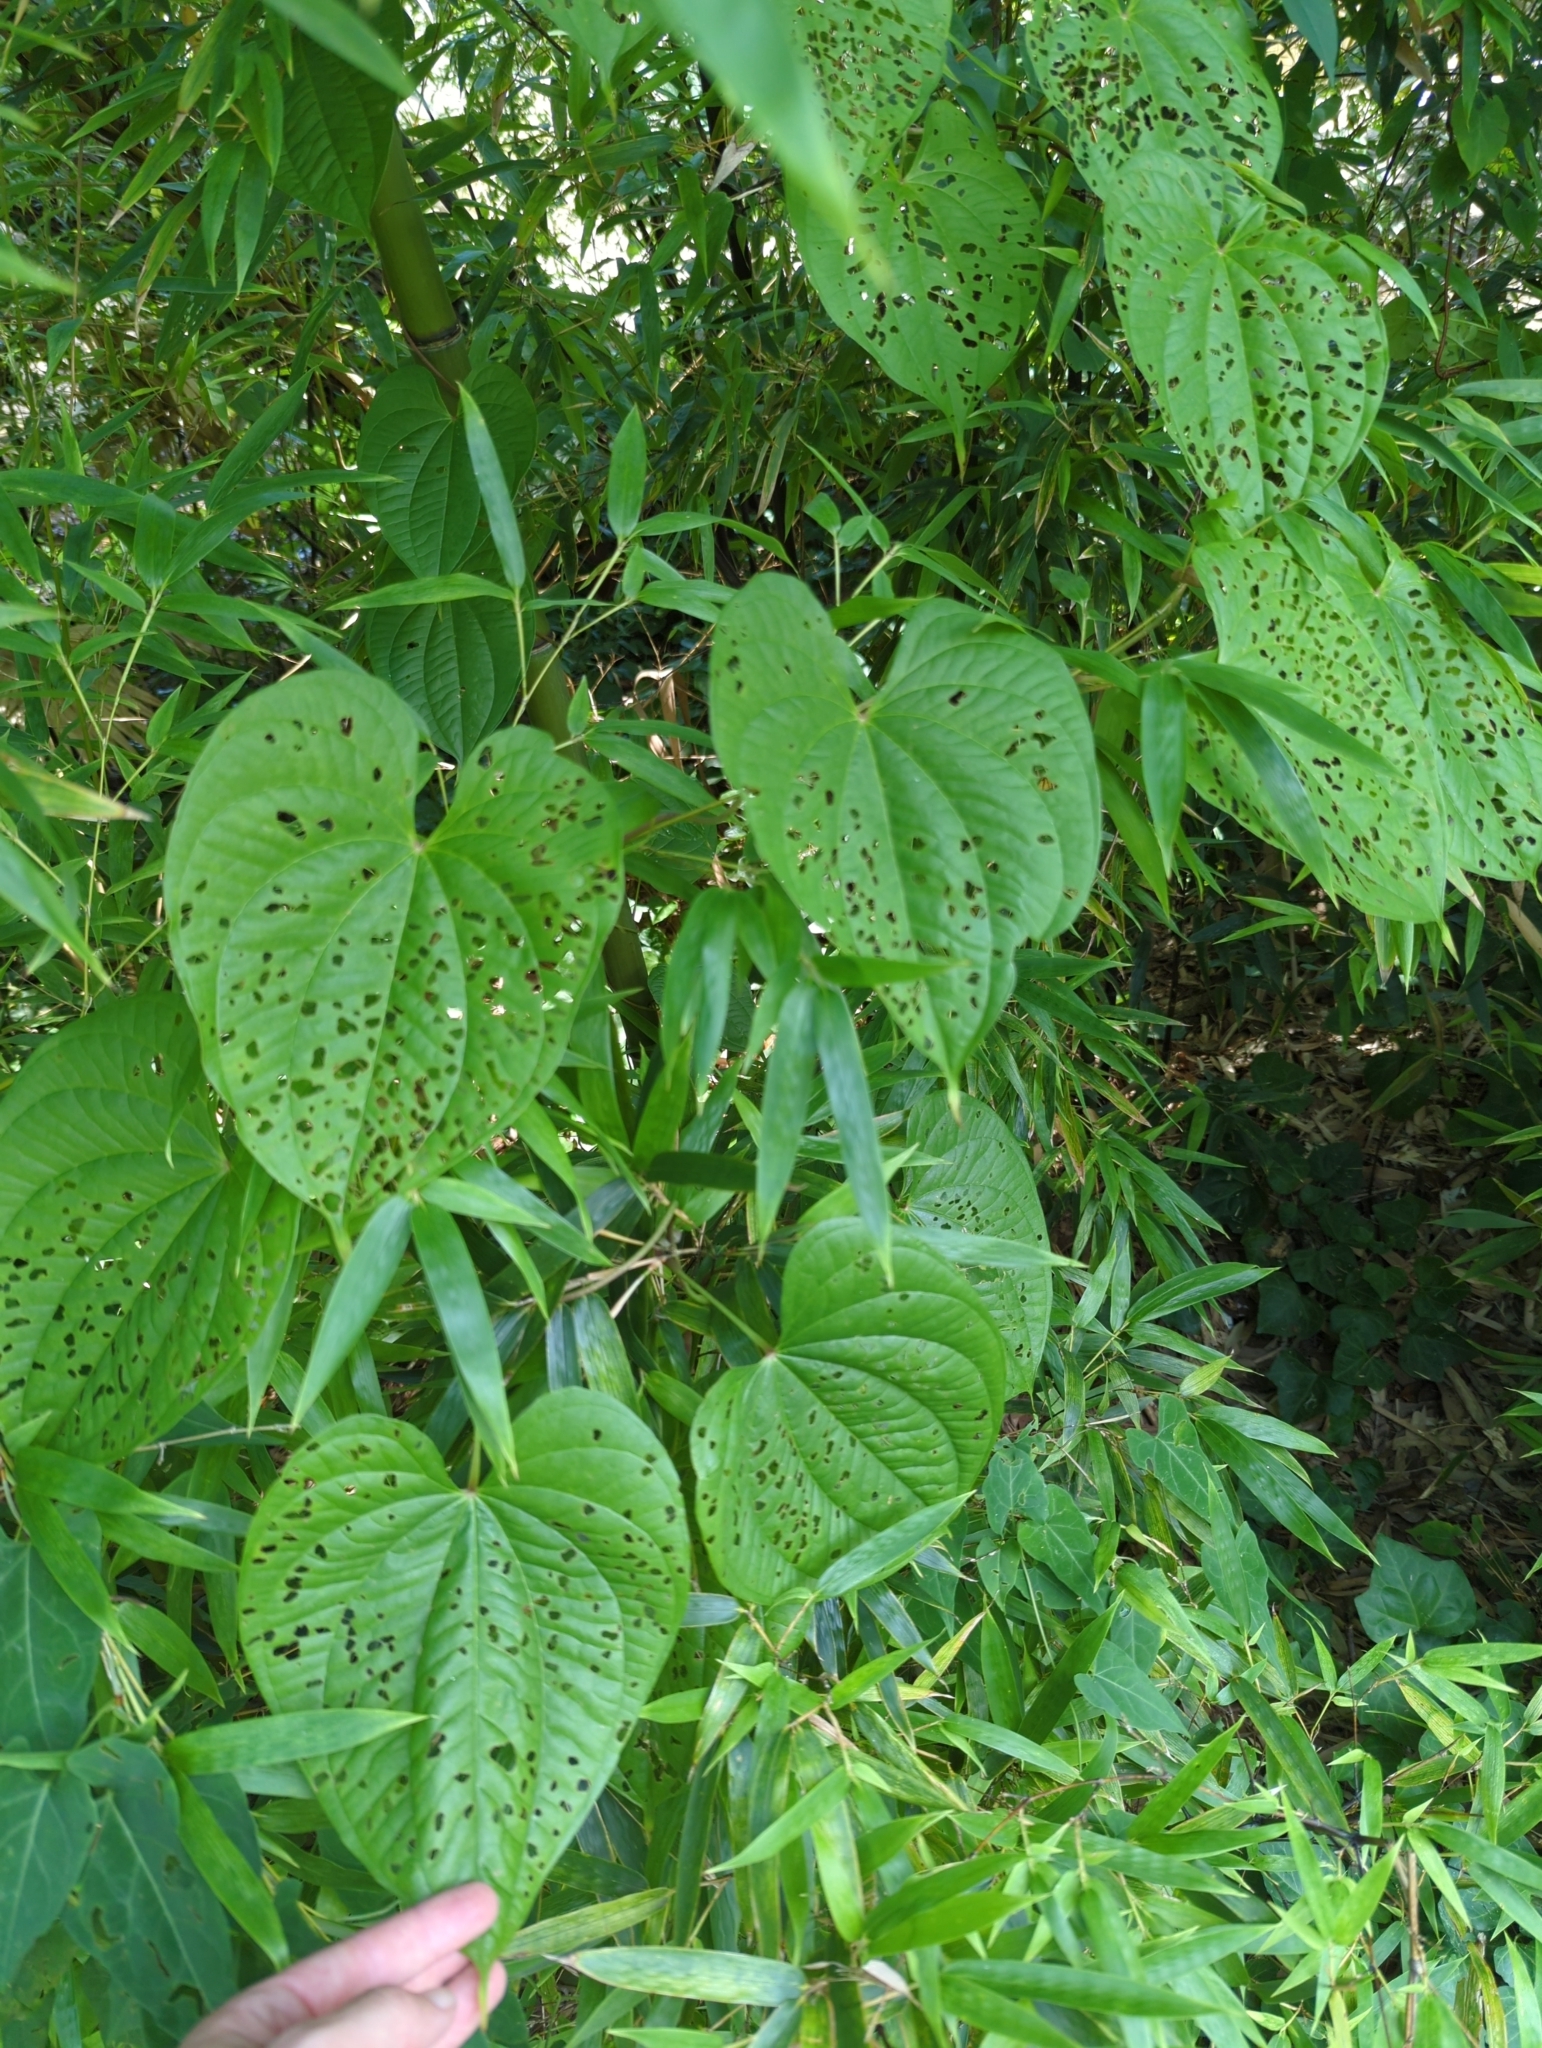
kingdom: Plantae
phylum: Tracheophyta
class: Liliopsida
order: Dioscoreales
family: Dioscoreaceae
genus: Dioscorea
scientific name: Dioscorea bulbifera
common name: Air yam
